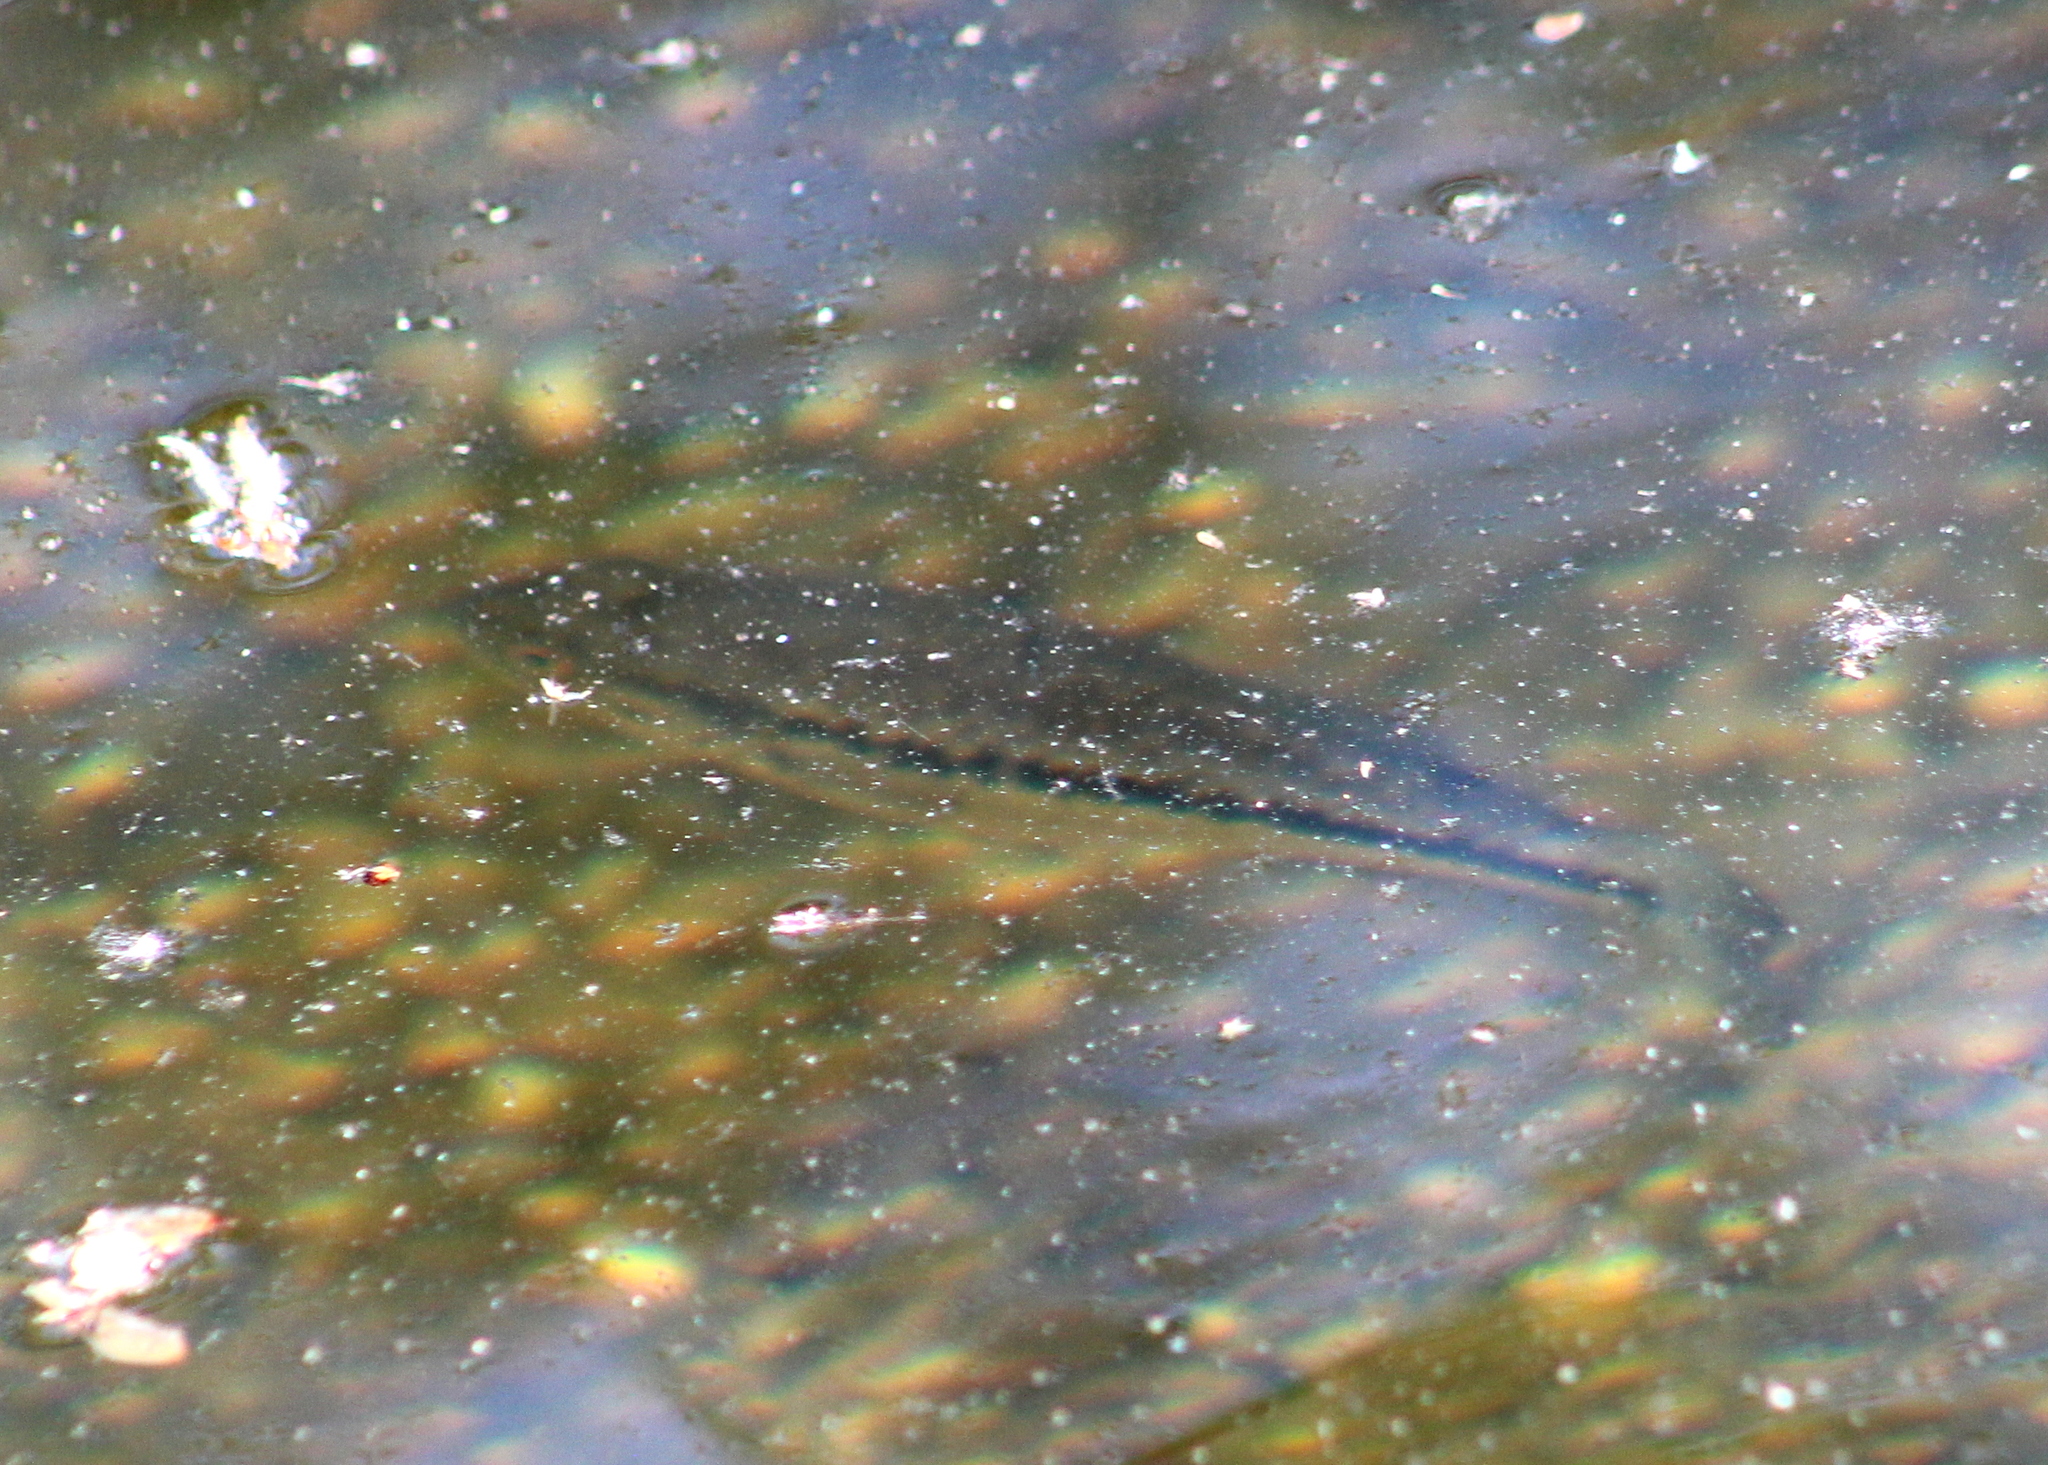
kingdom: Animalia
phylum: Chordata
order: Perciformes
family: Centrarchidae
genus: Micropterus
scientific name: Micropterus
